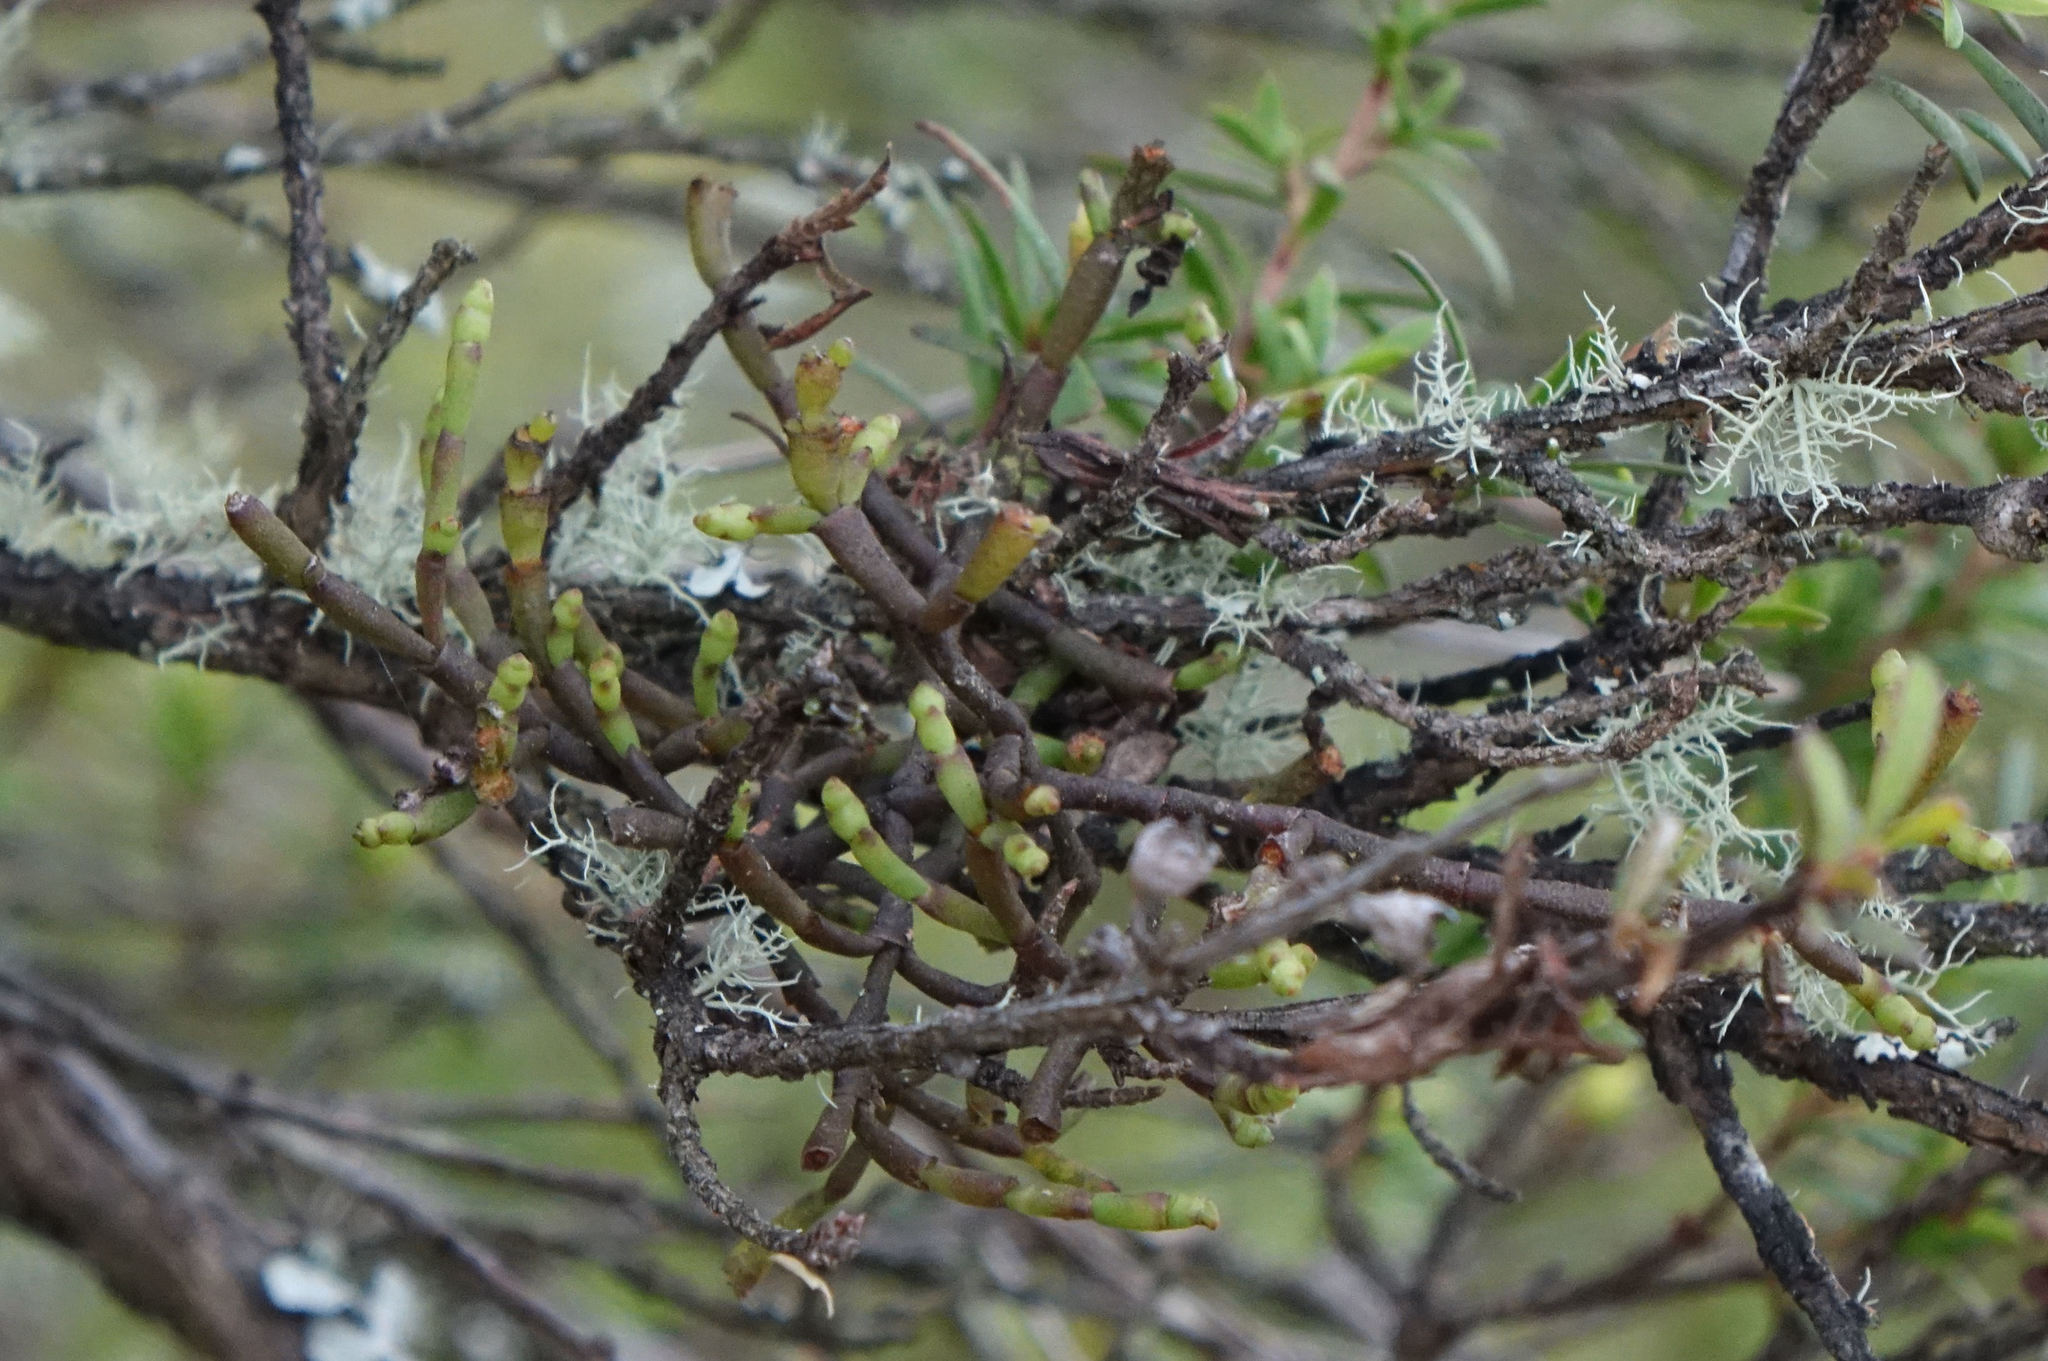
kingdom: Plantae
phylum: Tracheophyta
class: Magnoliopsida
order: Santalales
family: Viscaceae
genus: Korthalsella
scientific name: Korthalsella salicornioides
